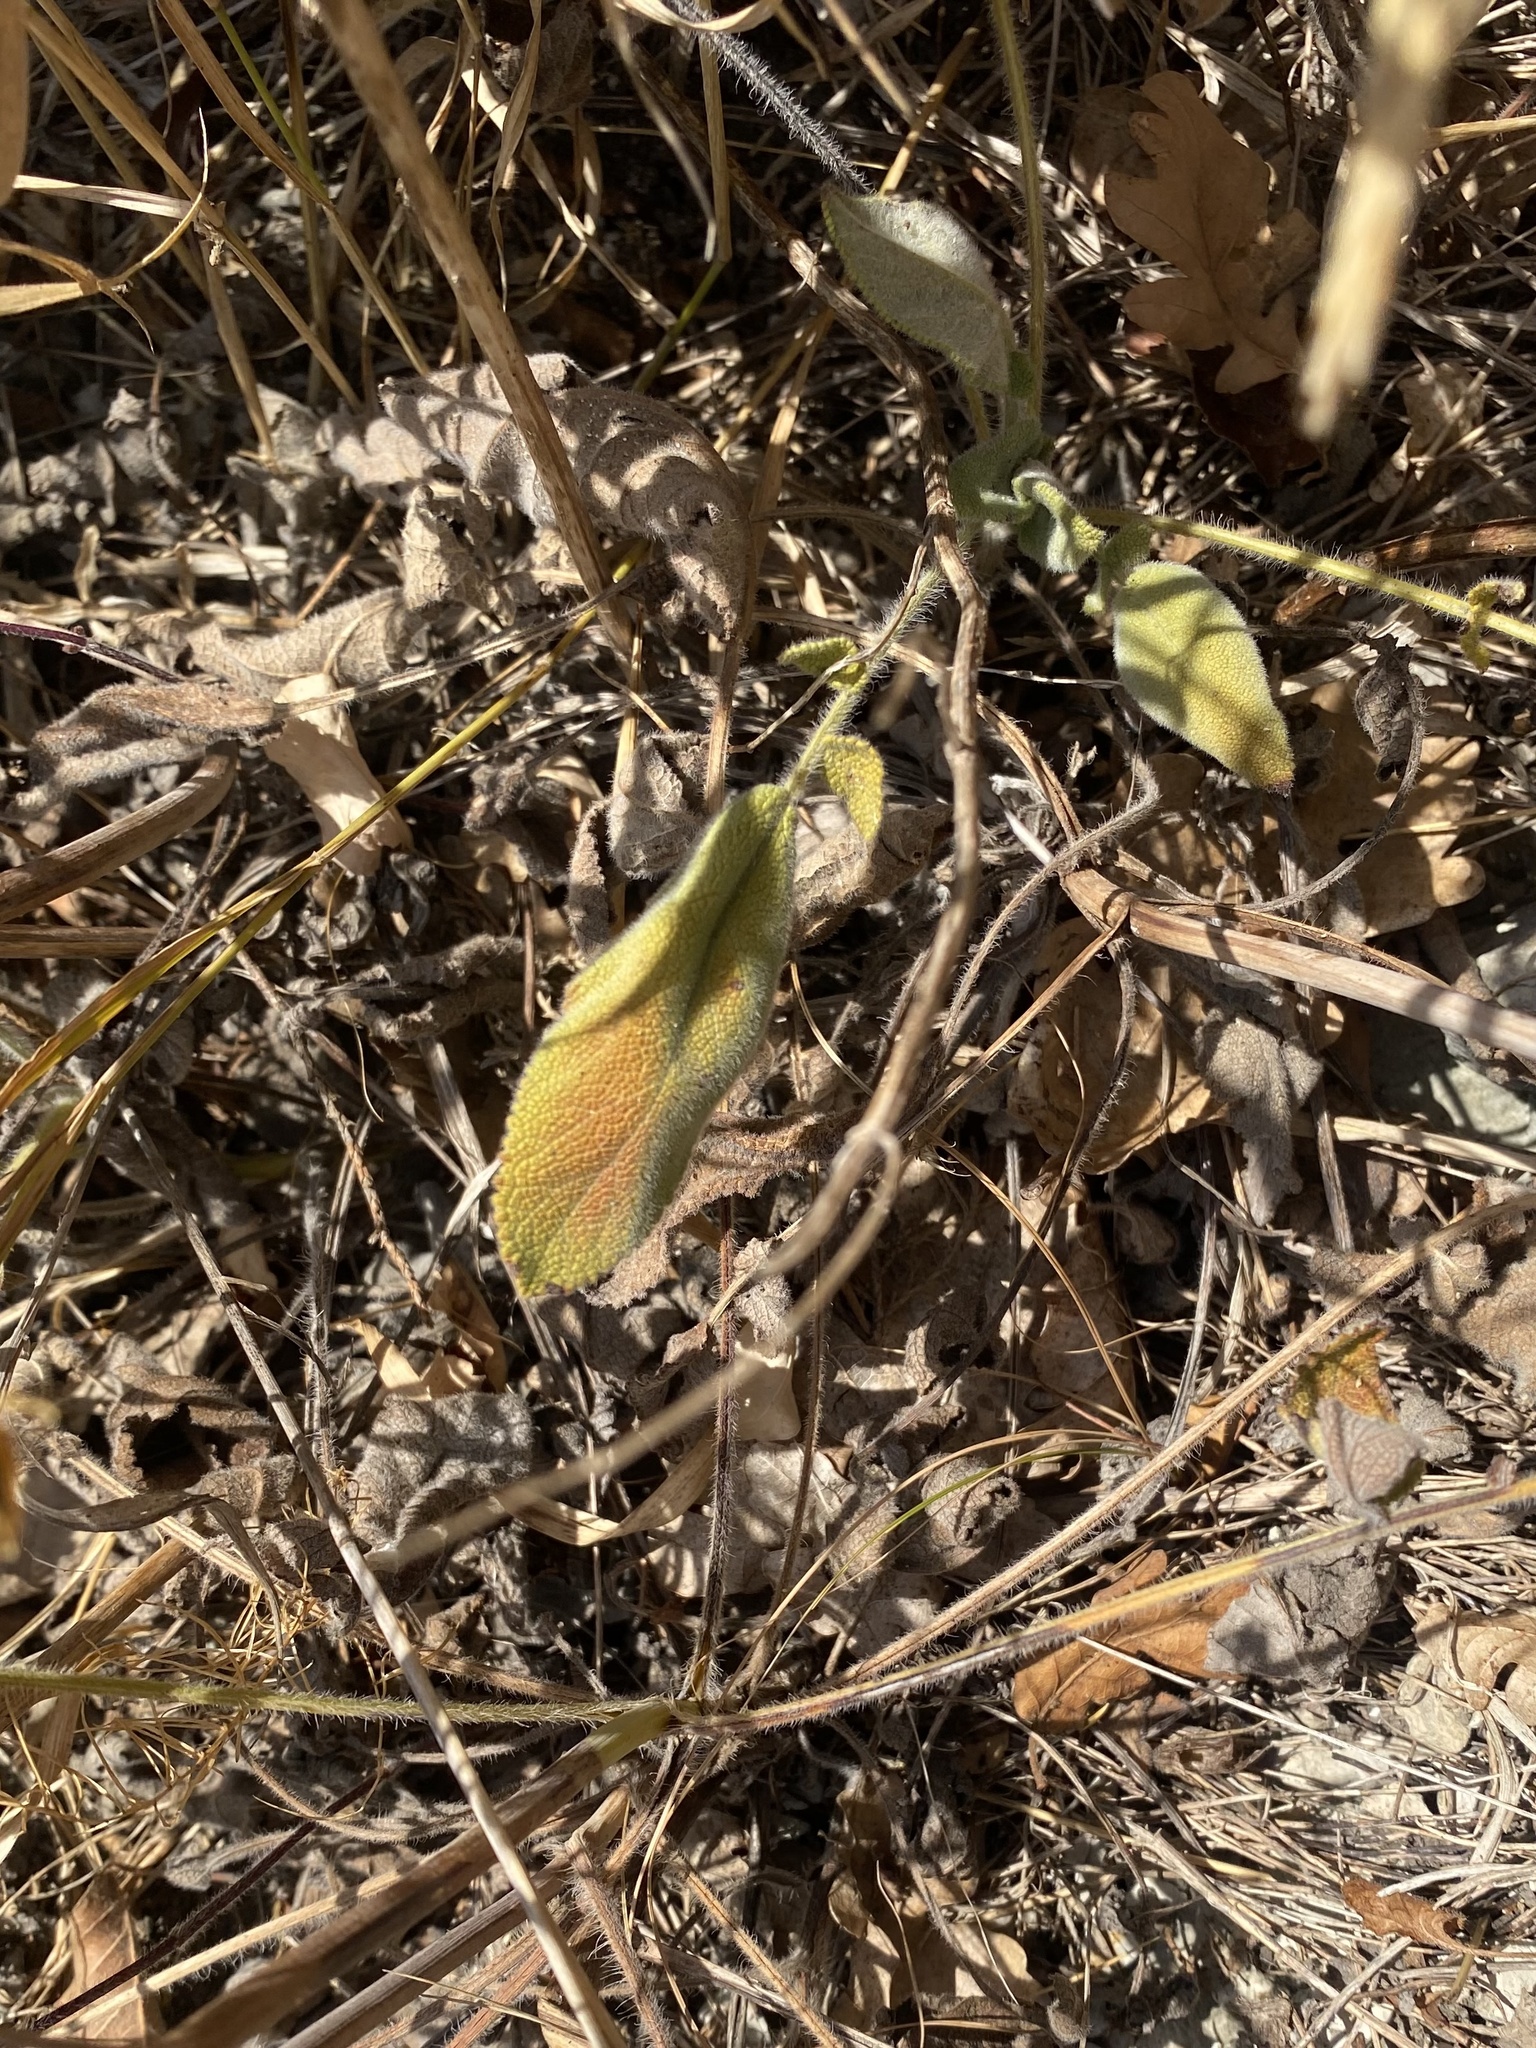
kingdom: Plantae
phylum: Tracheophyta
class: Magnoliopsida
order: Lamiales
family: Lamiaceae
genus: Salvia
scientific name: Salvia ringens
